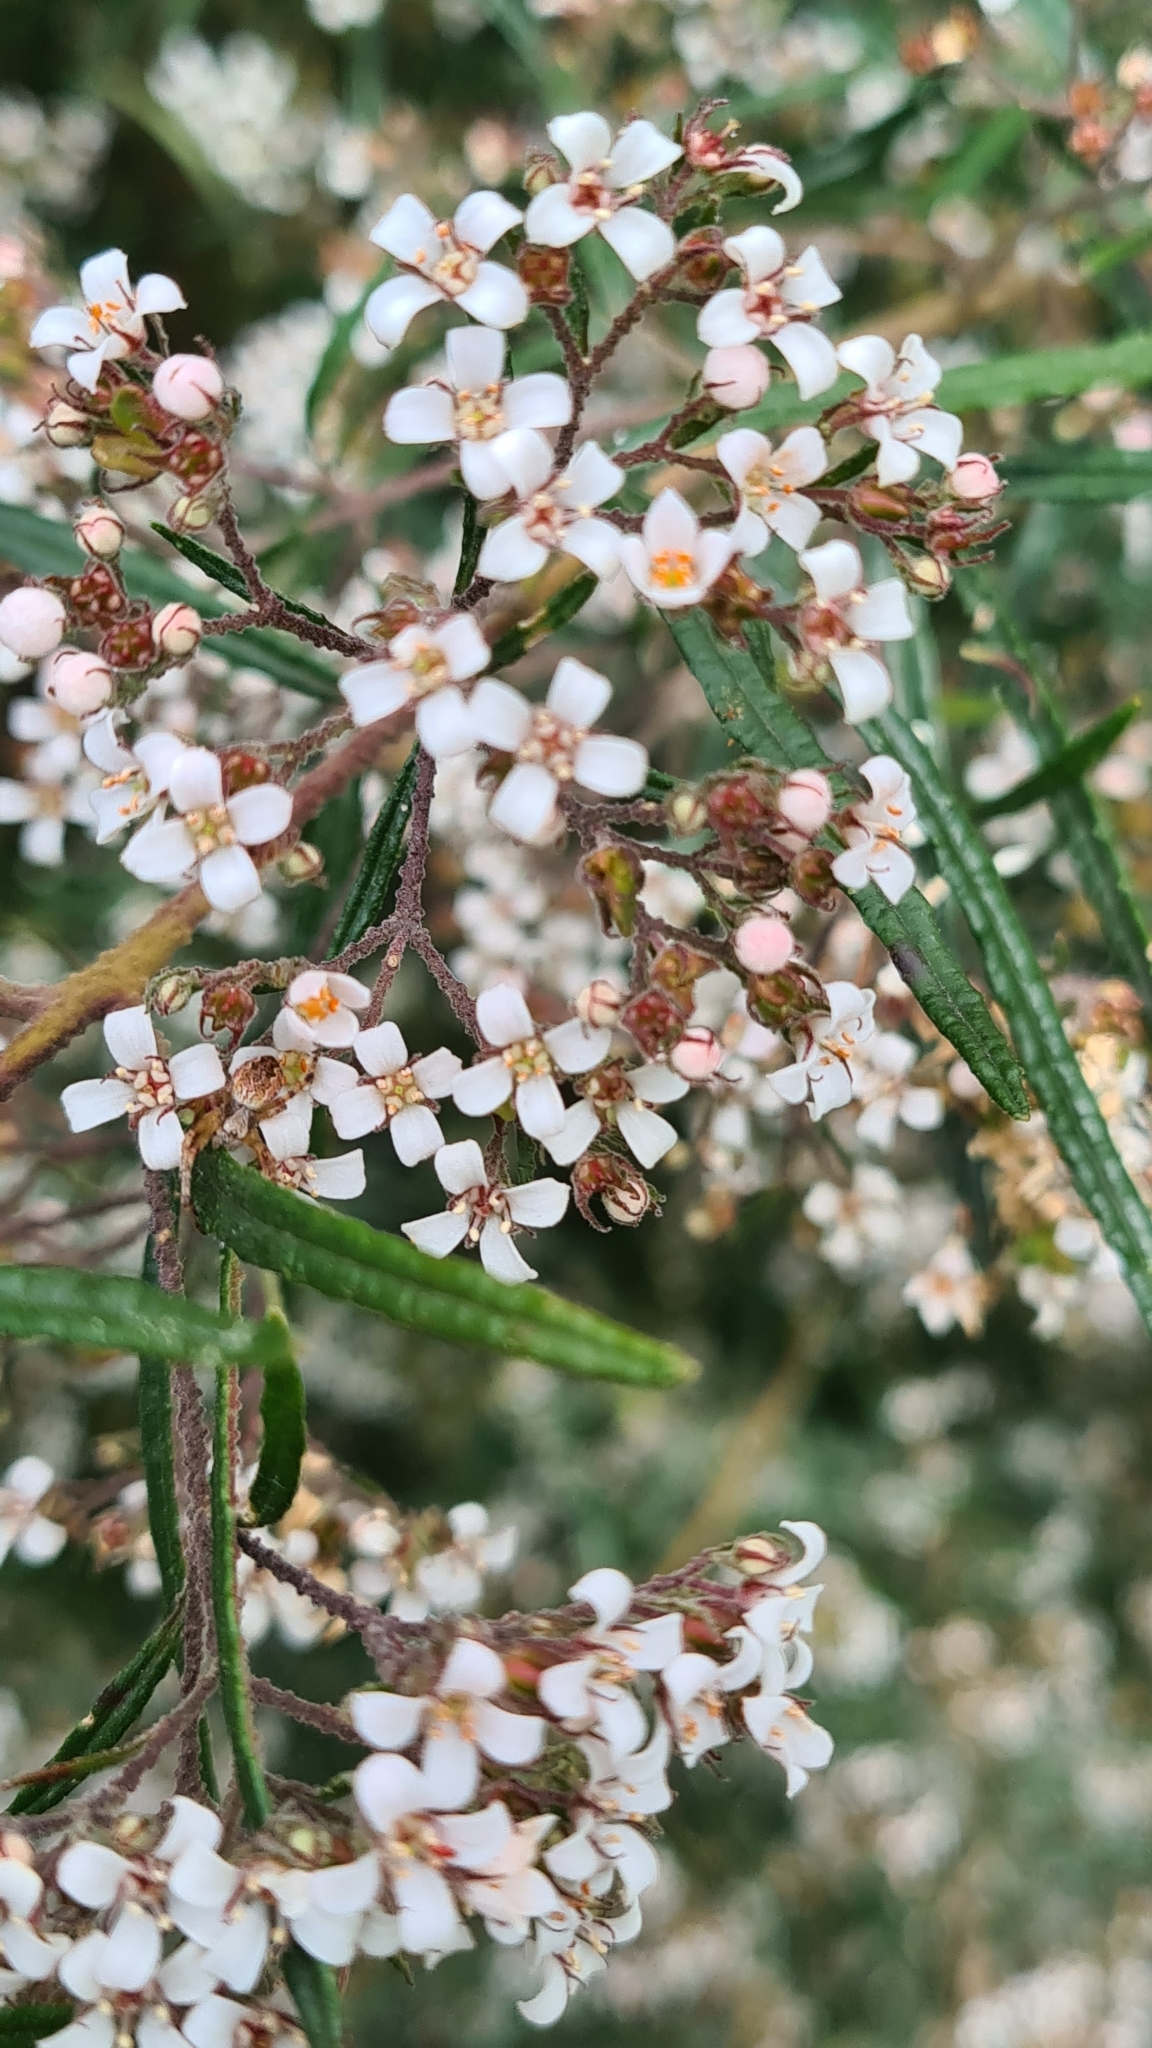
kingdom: Plantae
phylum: Tracheophyta
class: Magnoliopsida
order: Sapindales
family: Rutaceae
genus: Zieria
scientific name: Zieria tuberculata
